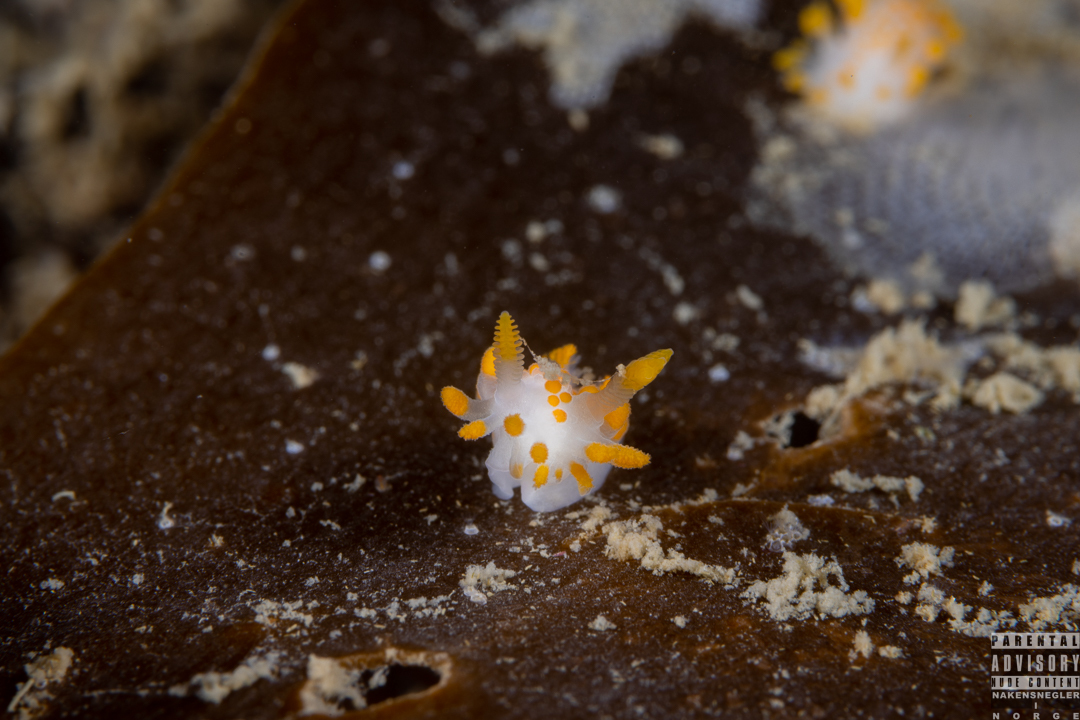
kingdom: Animalia
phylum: Mollusca
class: Gastropoda
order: Nudibranchia
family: Polyceridae
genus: Limacia
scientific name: Limacia clavigera
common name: Orange-clubbed sea slug
